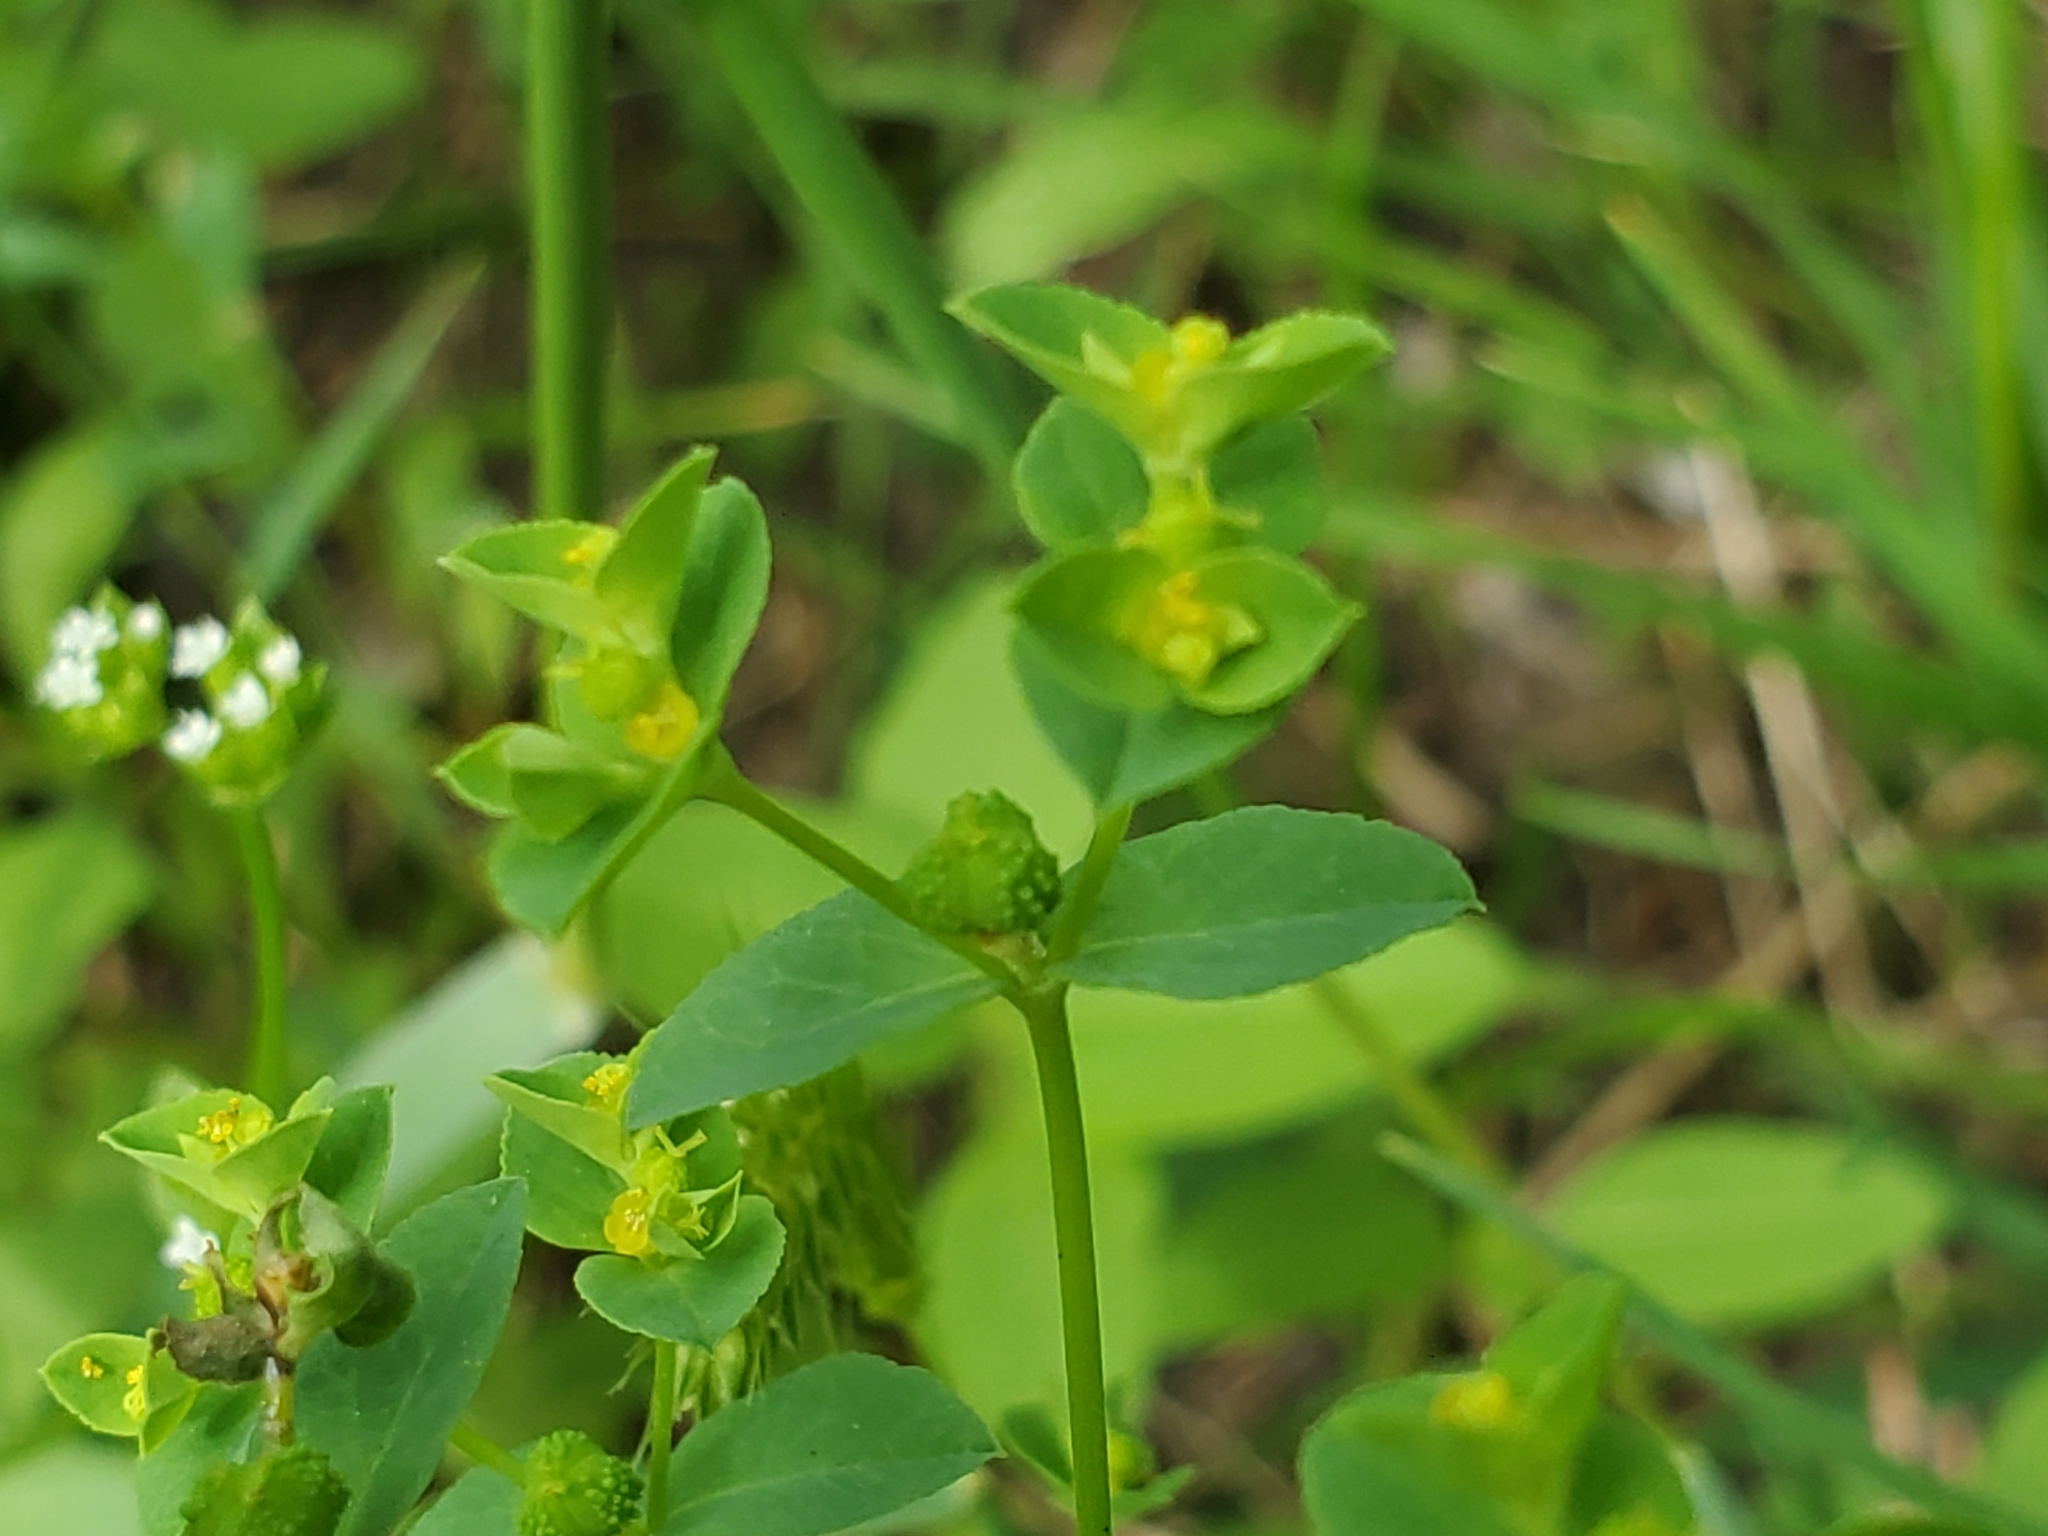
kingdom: Plantae
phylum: Tracheophyta
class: Magnoliopsida
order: Malpighiales
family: Euphorbiaceae
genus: Euphorbia
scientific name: Euphorbia spathulata
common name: Blunt spurge
